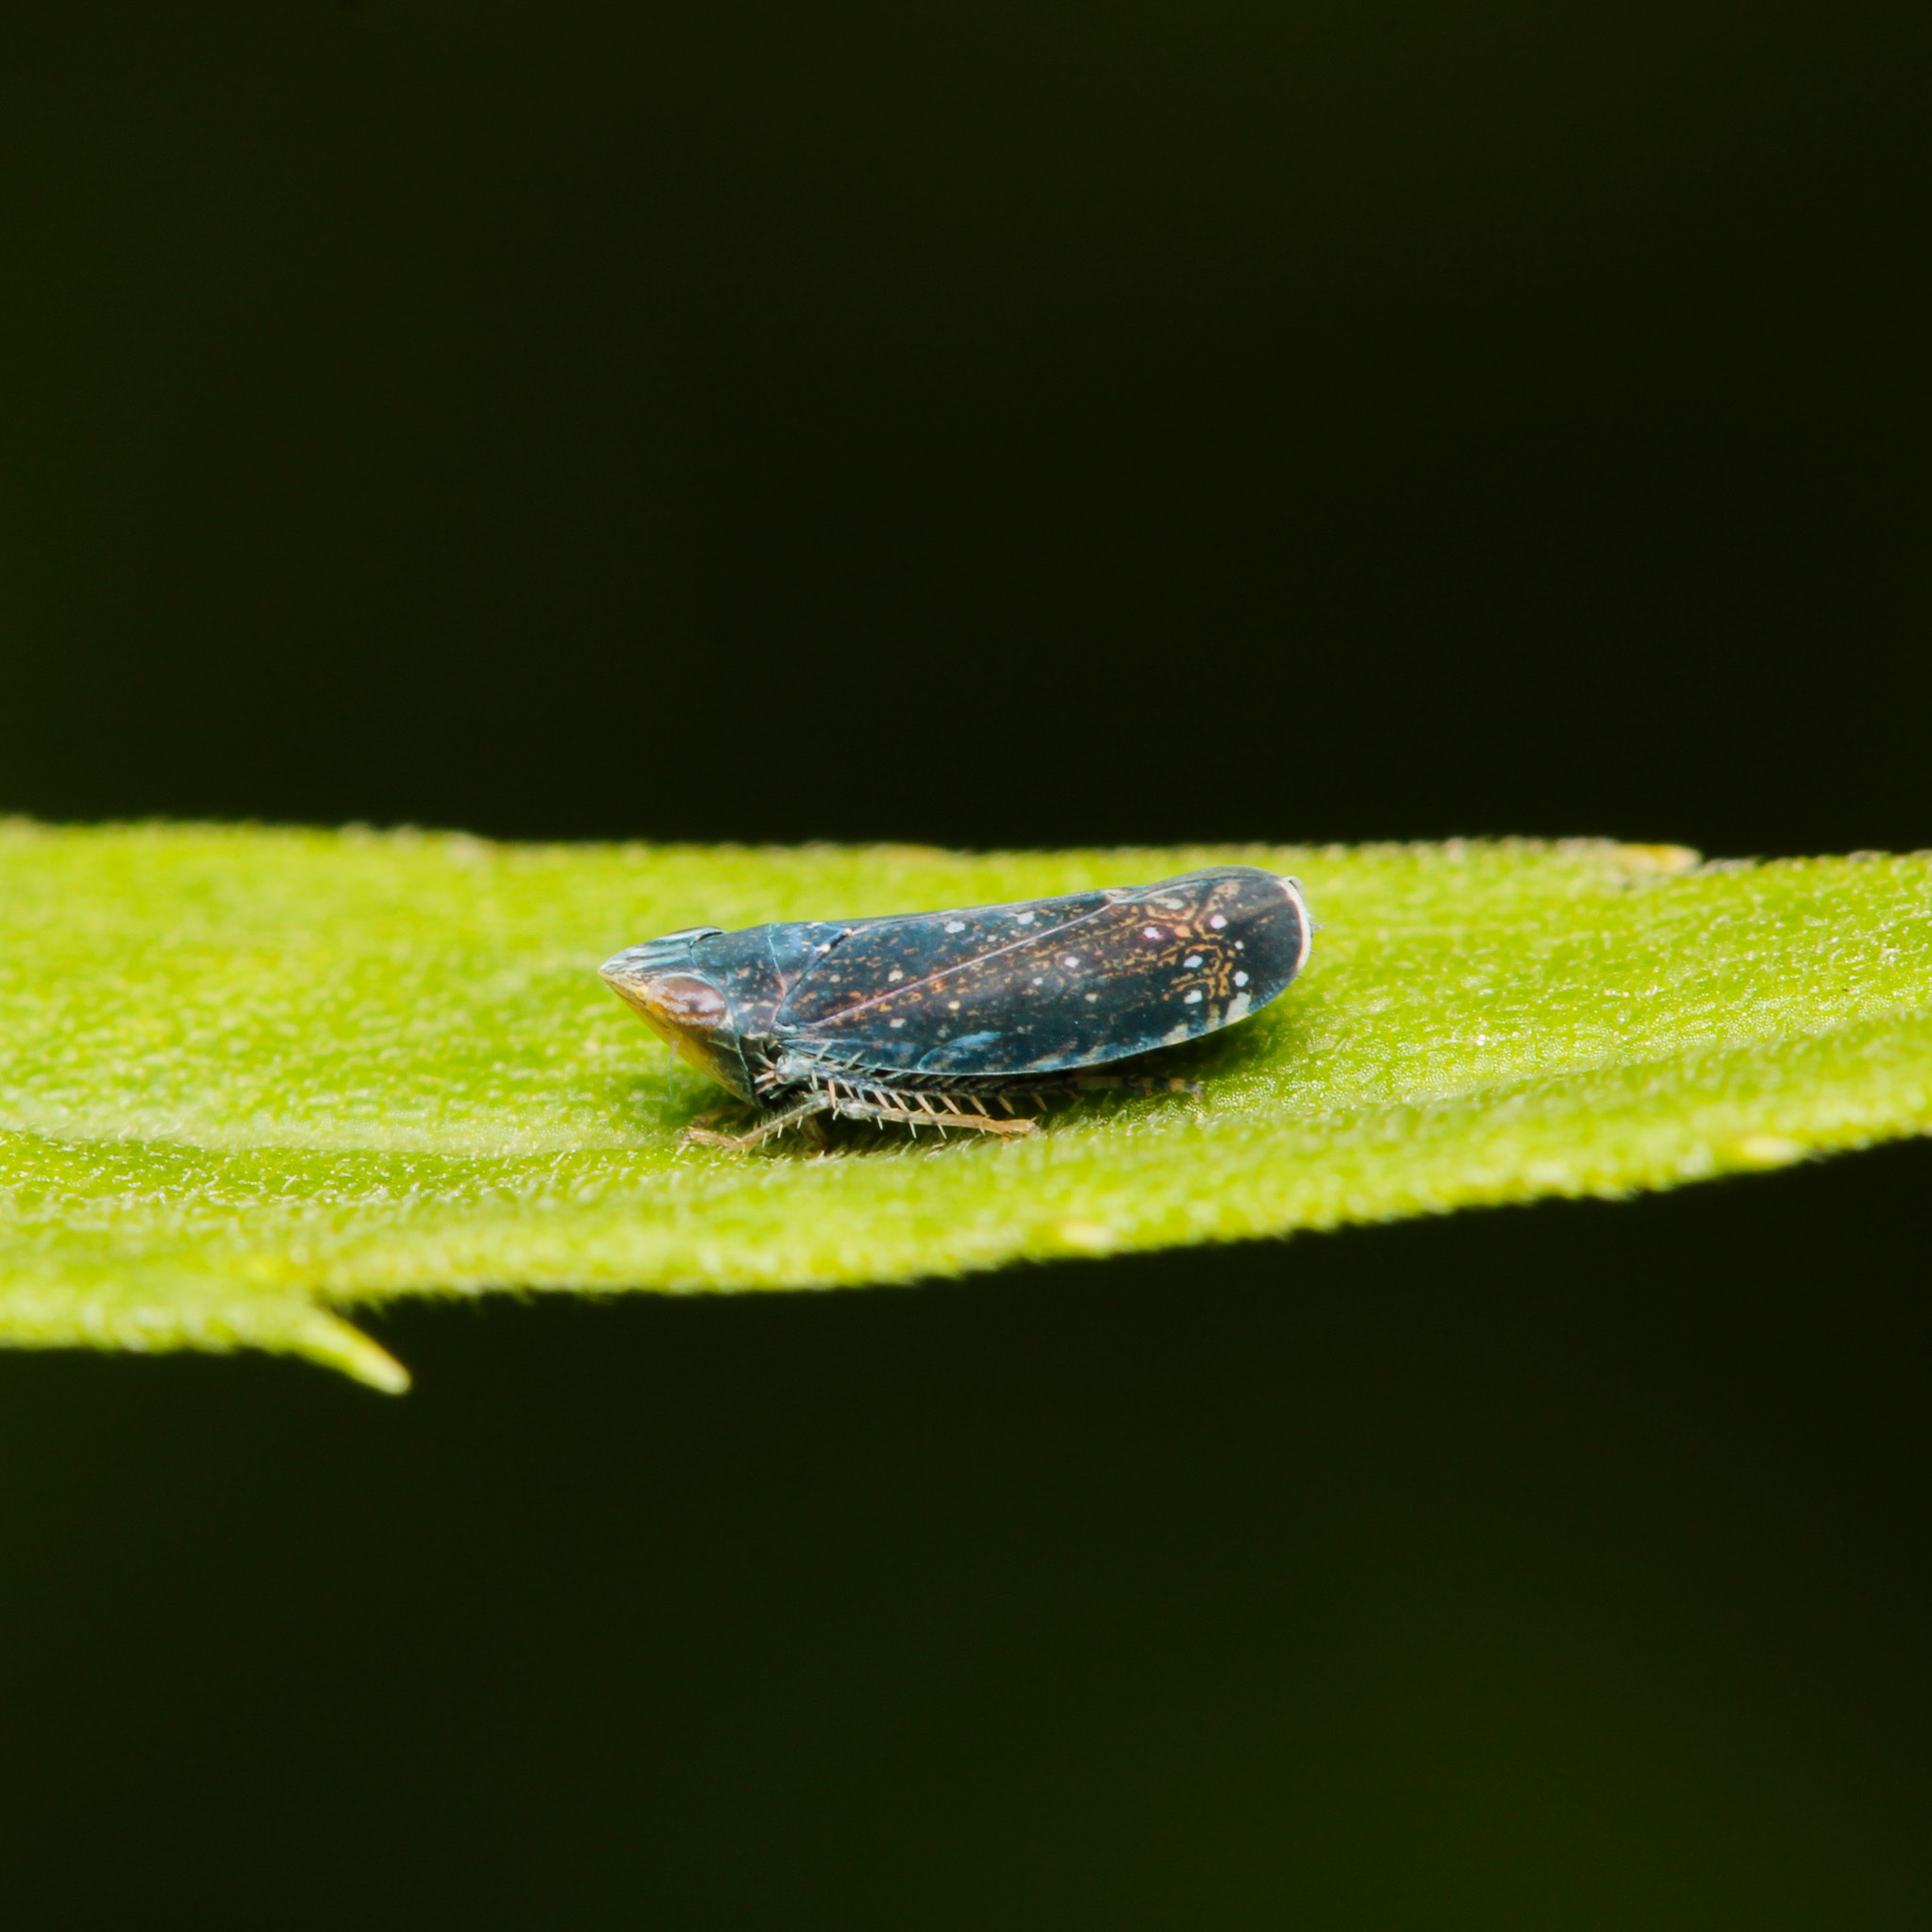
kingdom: Animalia
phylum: Arthropoda
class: Insecta
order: Hemiptera
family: Cicadellidae
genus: Scaphytopius
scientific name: Scaphytopius frontalis
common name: The yellow-faced leafhopper
